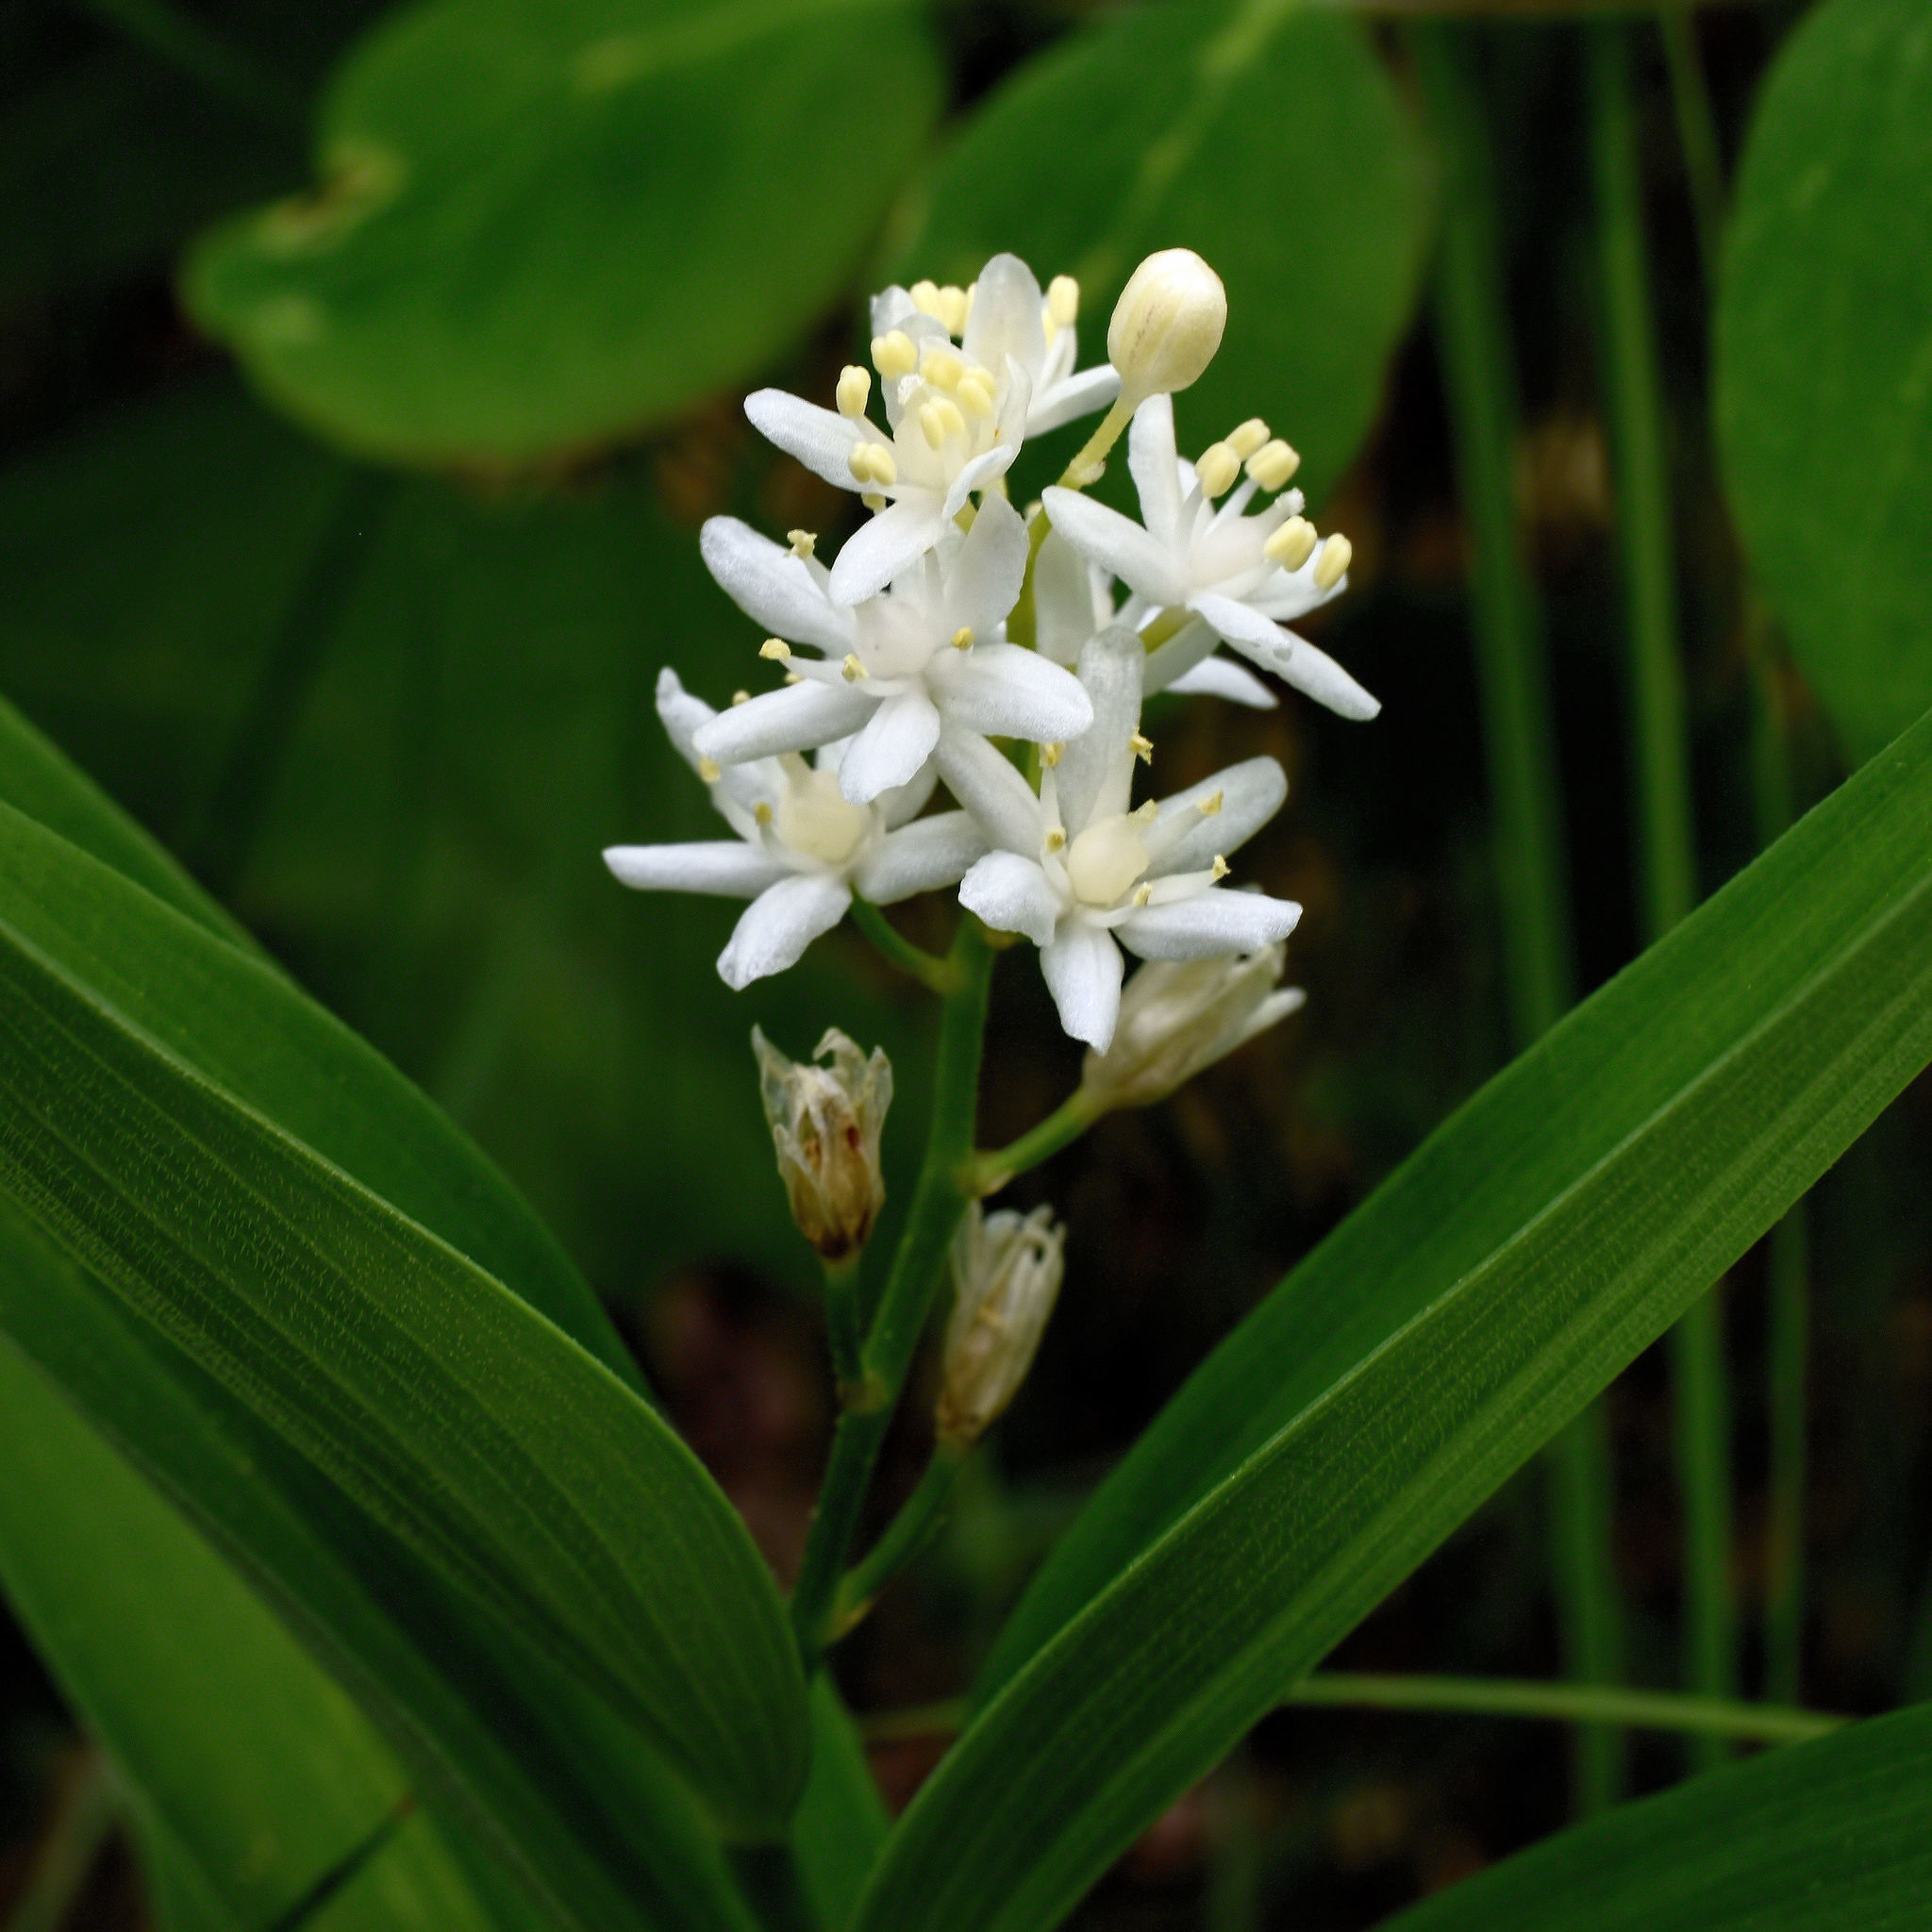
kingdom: Plantae
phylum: Tracheophyta
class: Liliopsida
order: Asparagales
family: Asparagaceae
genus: Maianthemum
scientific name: Maianthemum stellatum
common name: Little false solomon's seal
